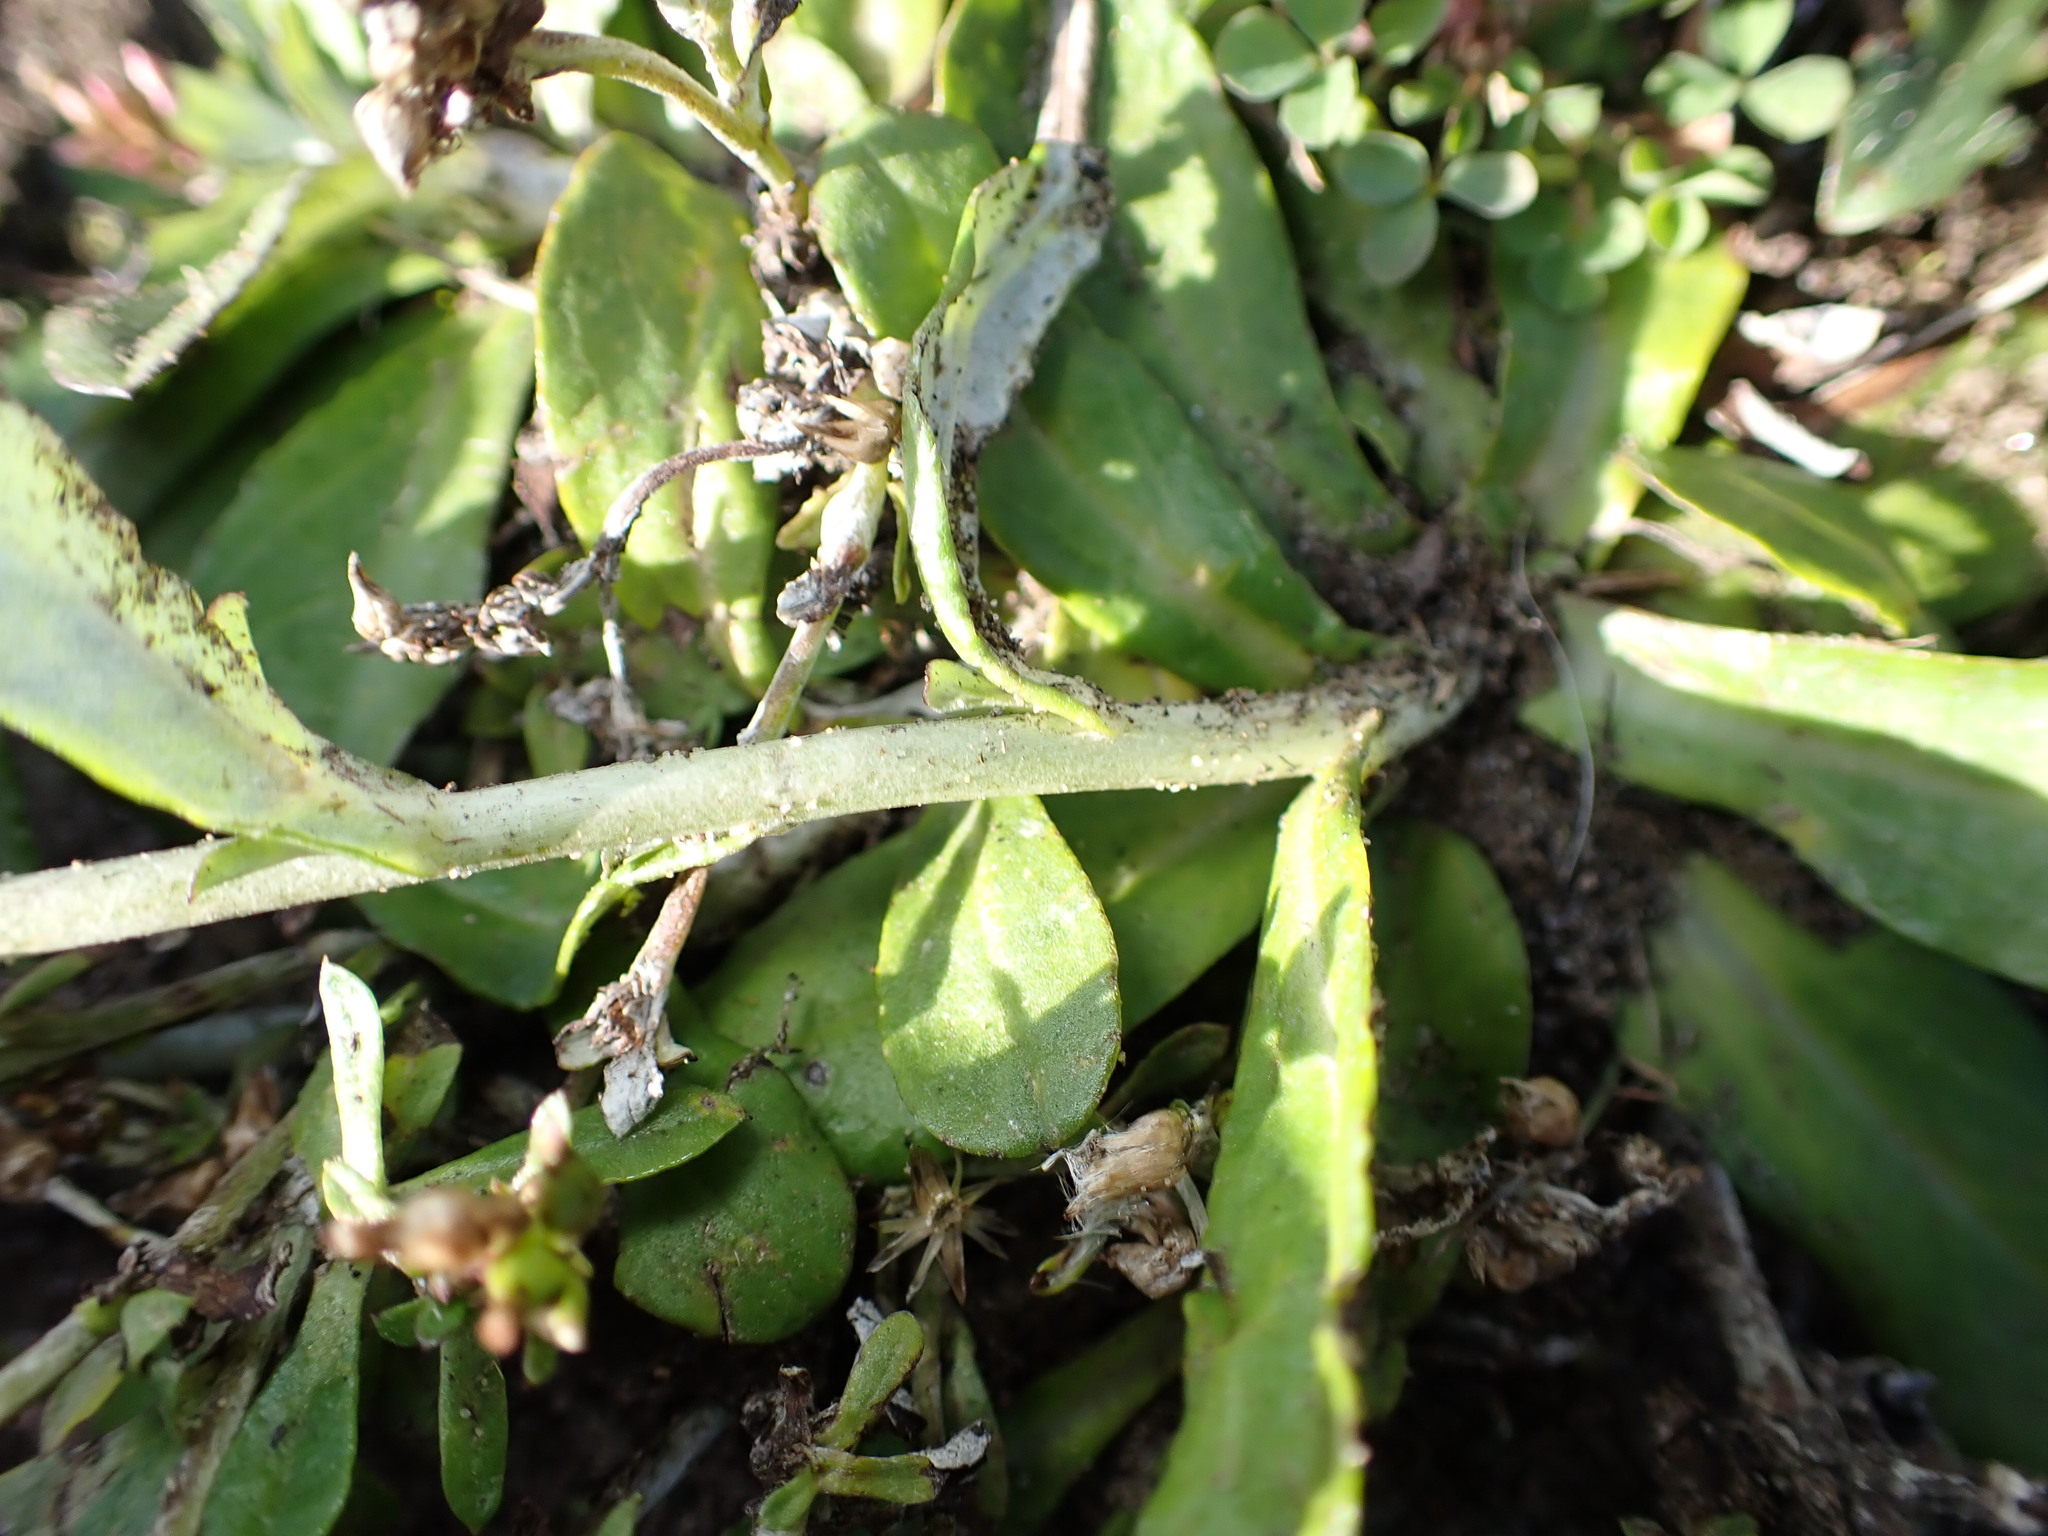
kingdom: Plantae
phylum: Tracheophyta
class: Magnoliopsida
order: Asterales
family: Asteraceae
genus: Gamochaeta
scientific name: Gamochaeta americana
